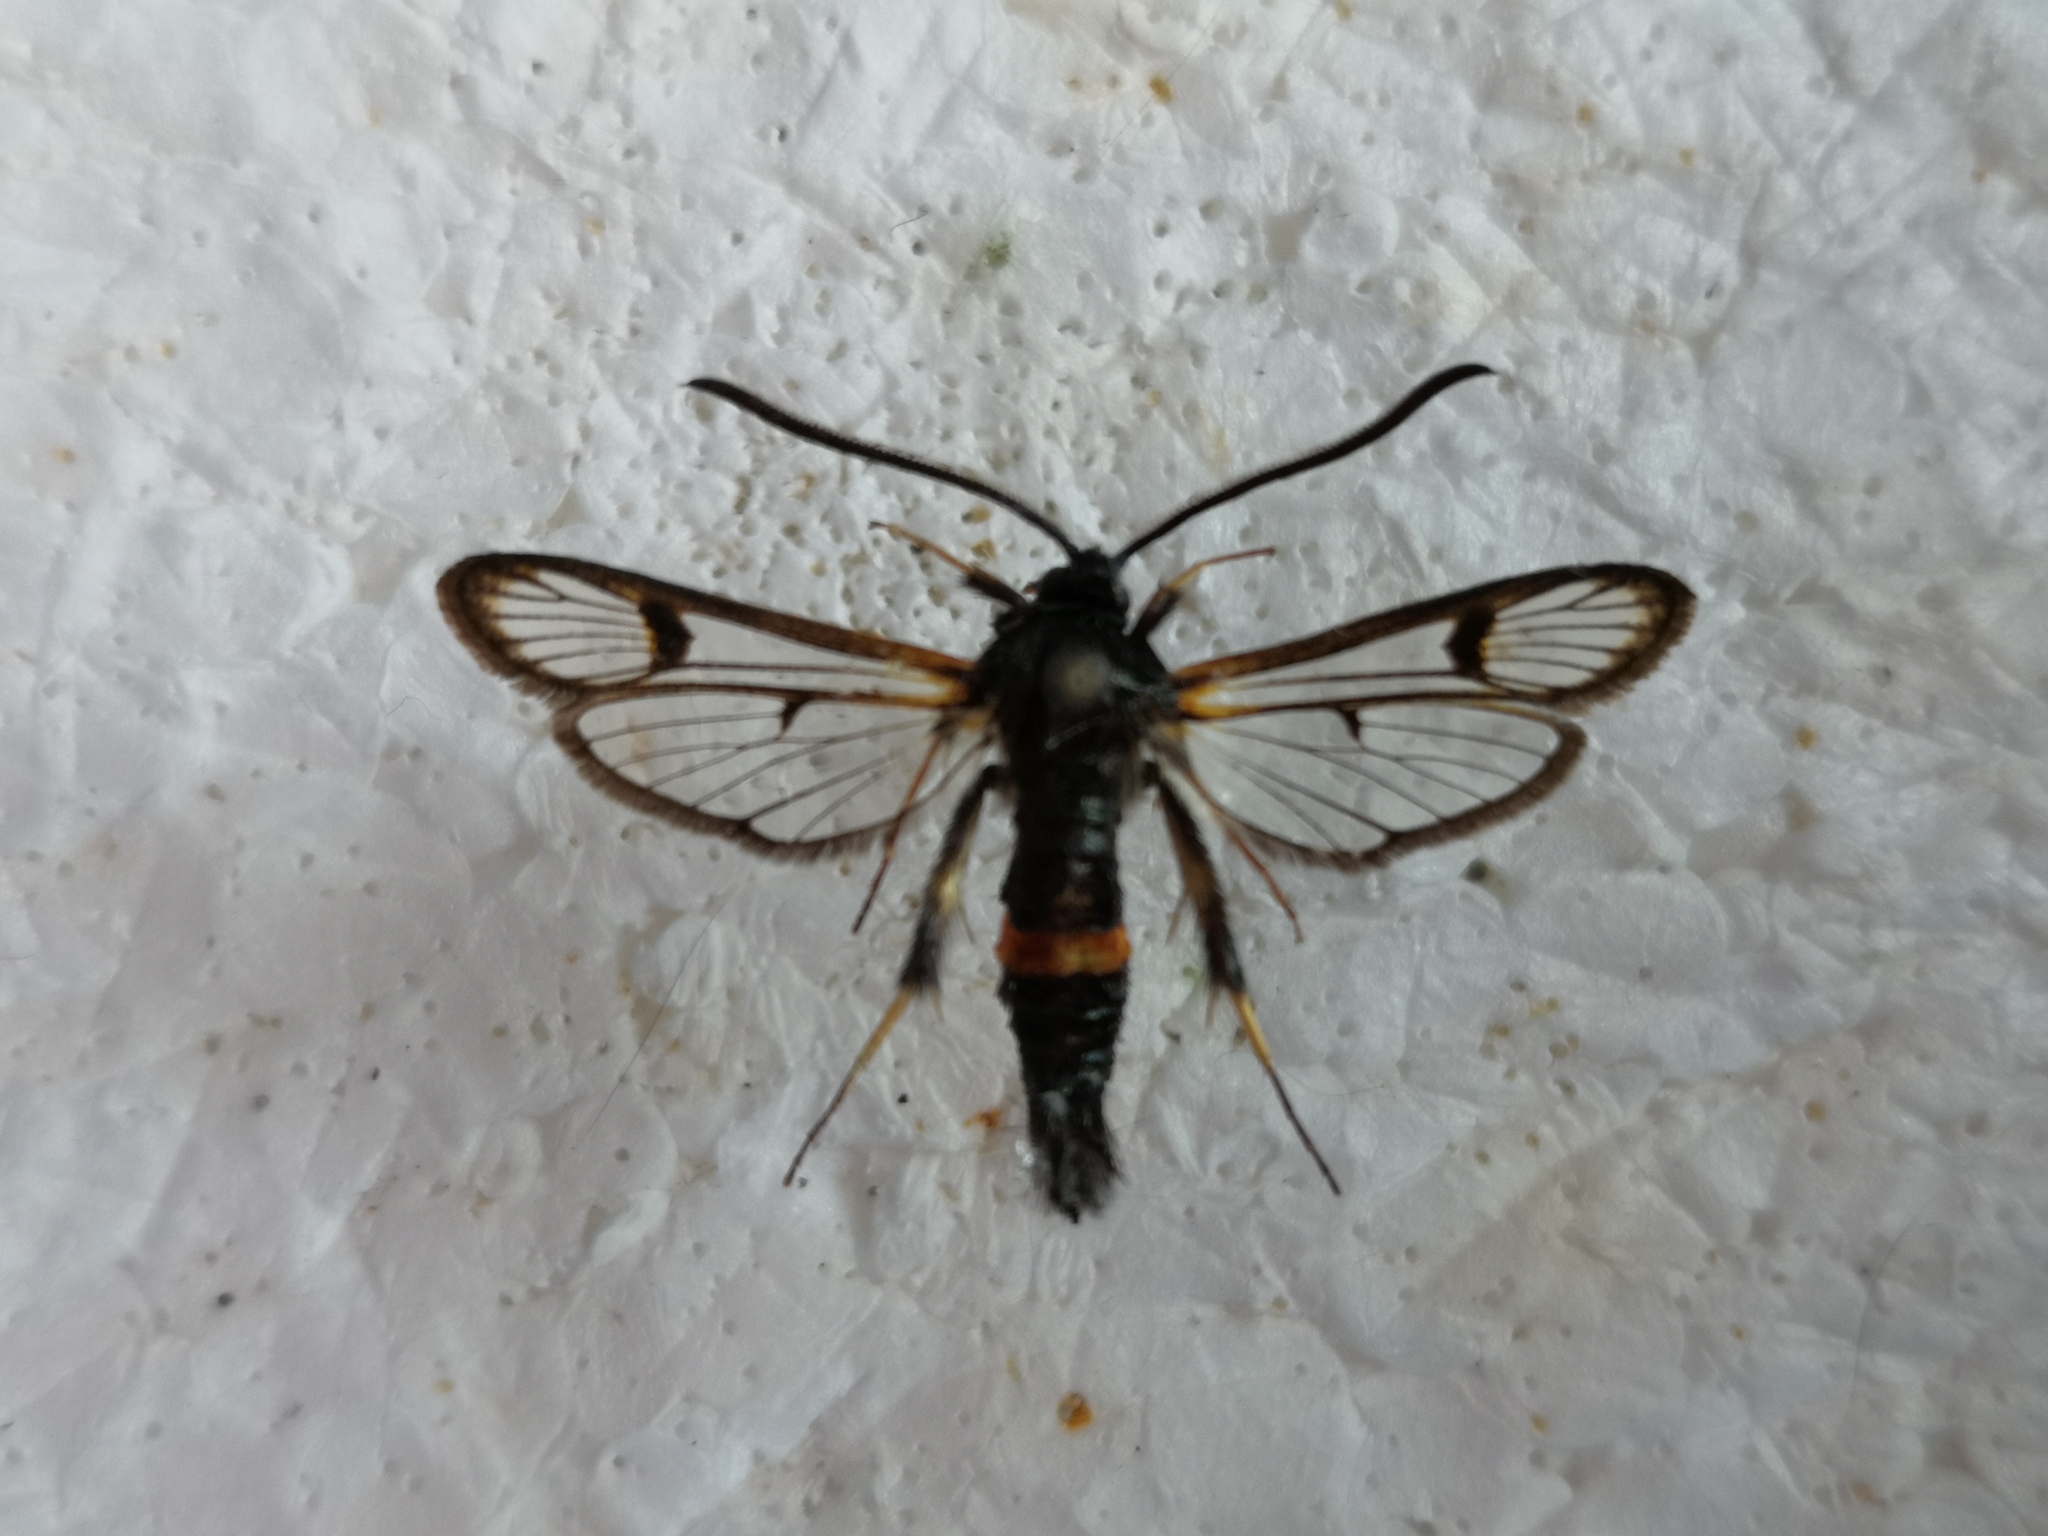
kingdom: Animalia
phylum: Arthropoda
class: Insecta
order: Lepidoptera
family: Sesiidae
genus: Synanthedon
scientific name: Synanthedon culiciformis
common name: Large red-belted clearwing
